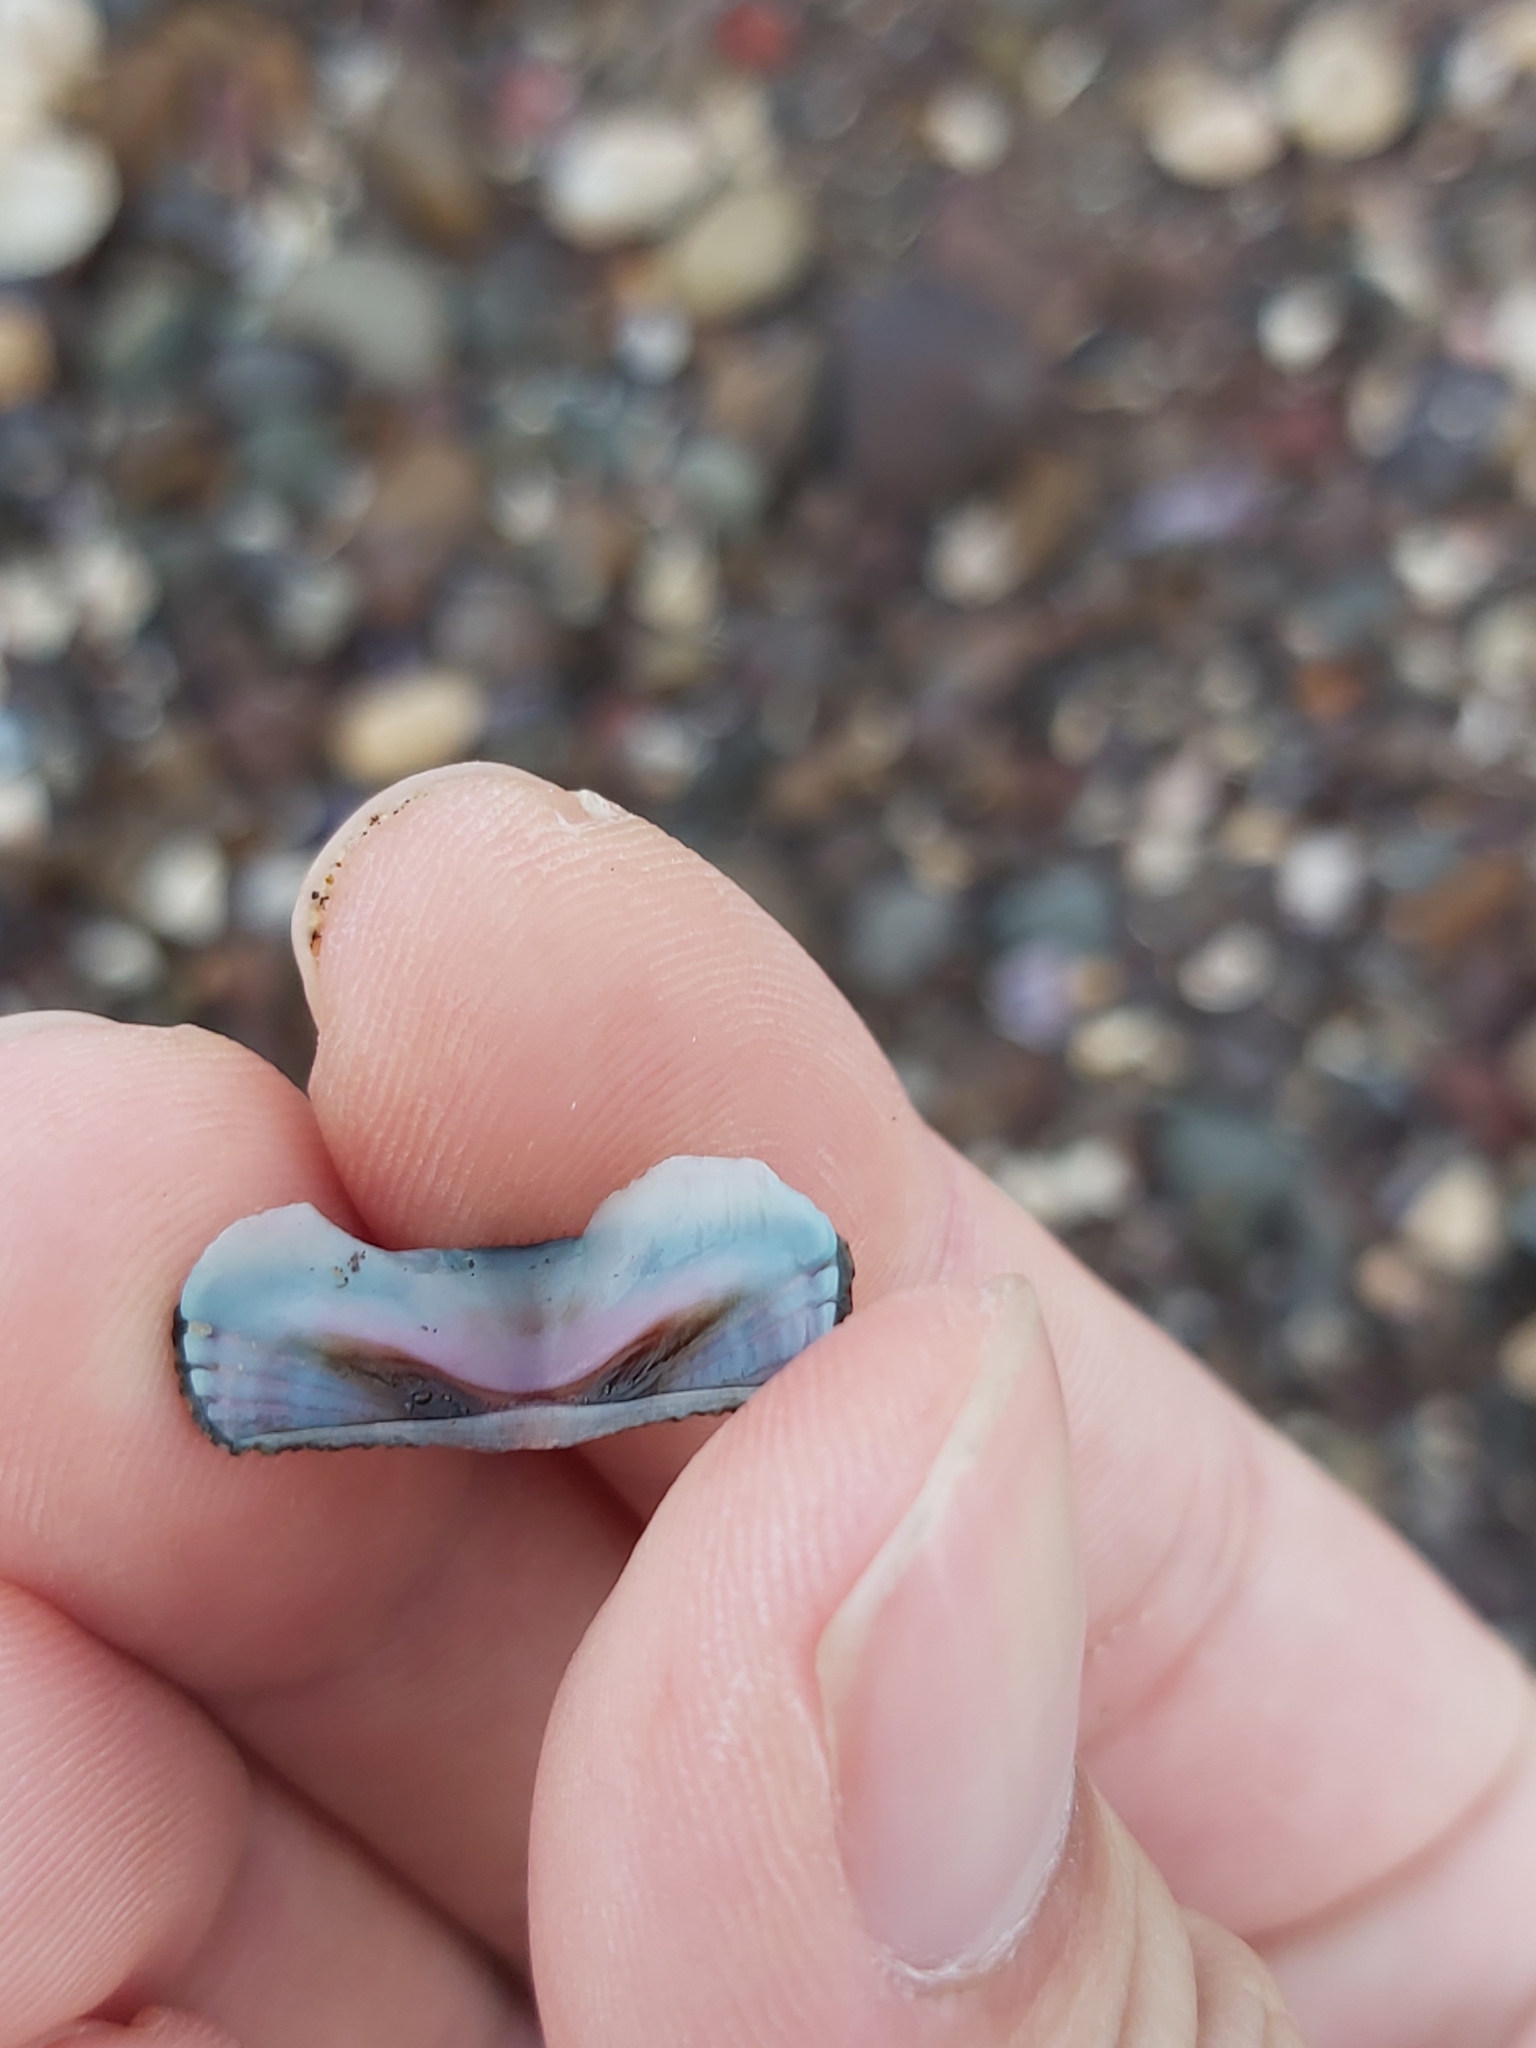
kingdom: Animalia
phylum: Mollusca
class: Polyplacophora
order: Chitonida
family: Ischnochitonidae
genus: Ischnochiton
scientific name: Ischnochiton australis
